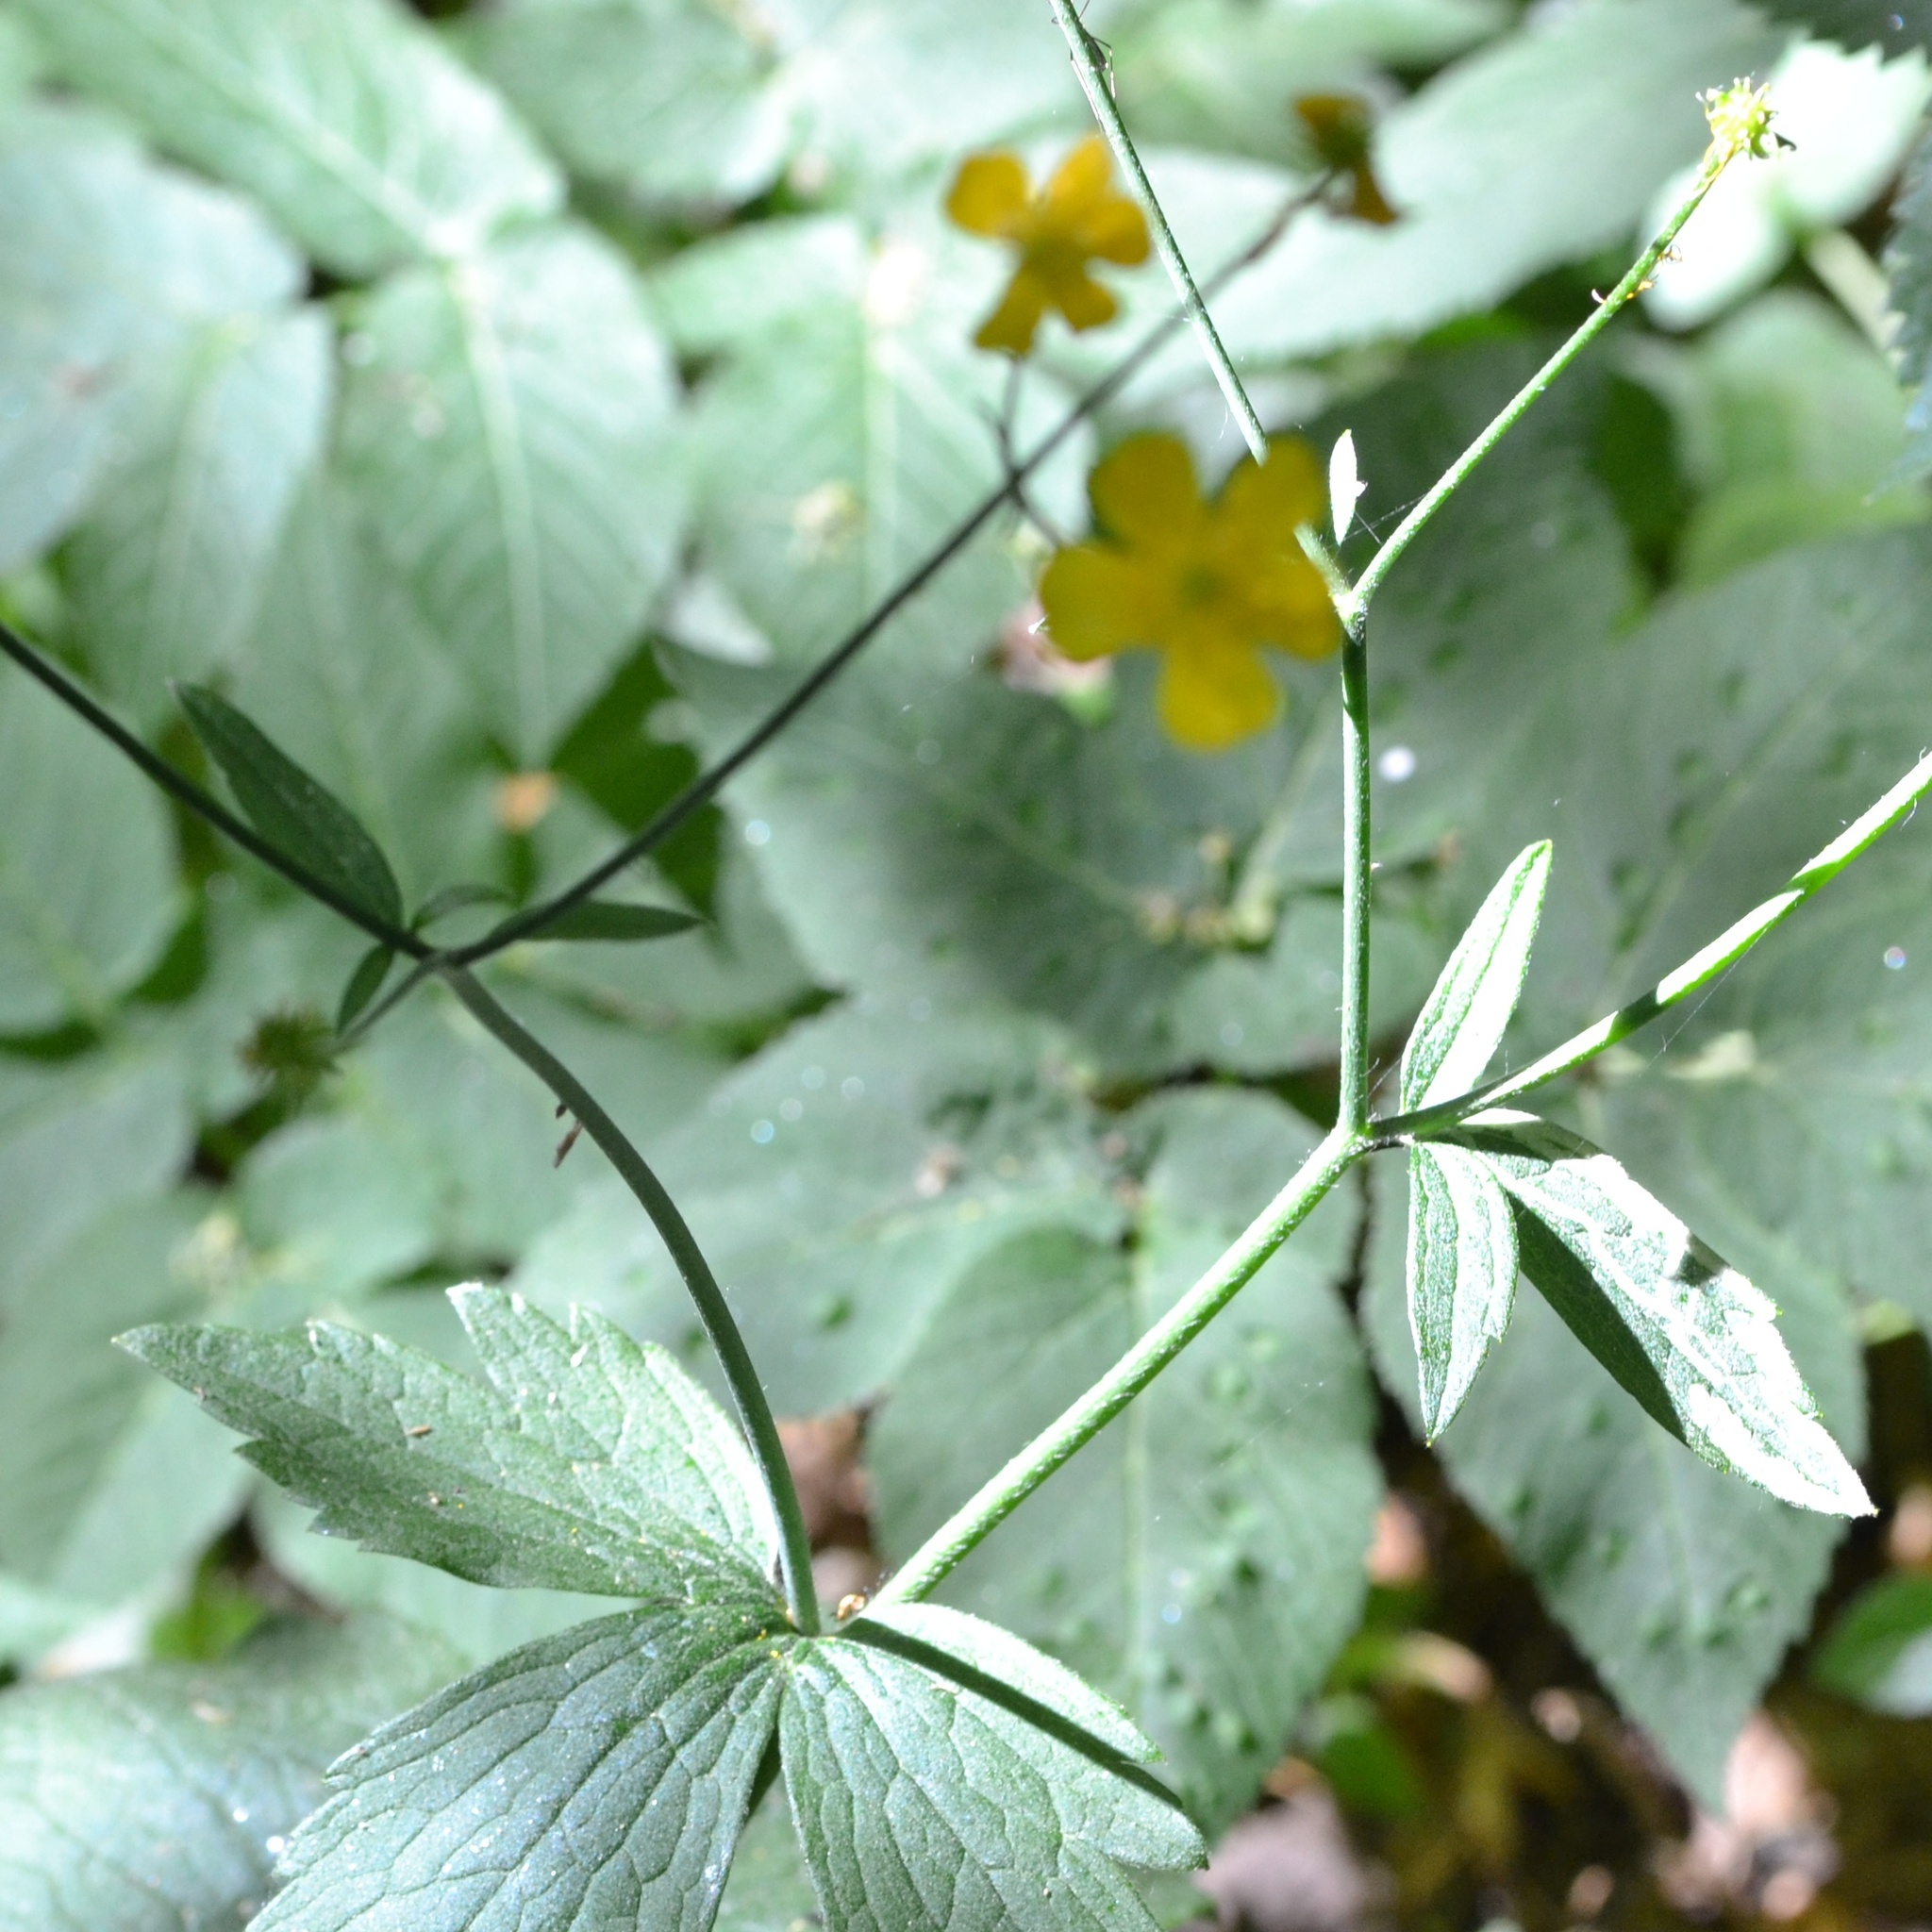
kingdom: Plantae
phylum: Tracheophyta
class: Magnoliopsida
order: Ranunculales
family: Ranunculaceae
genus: Ranunculus
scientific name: Ranunculus lanuginosus
